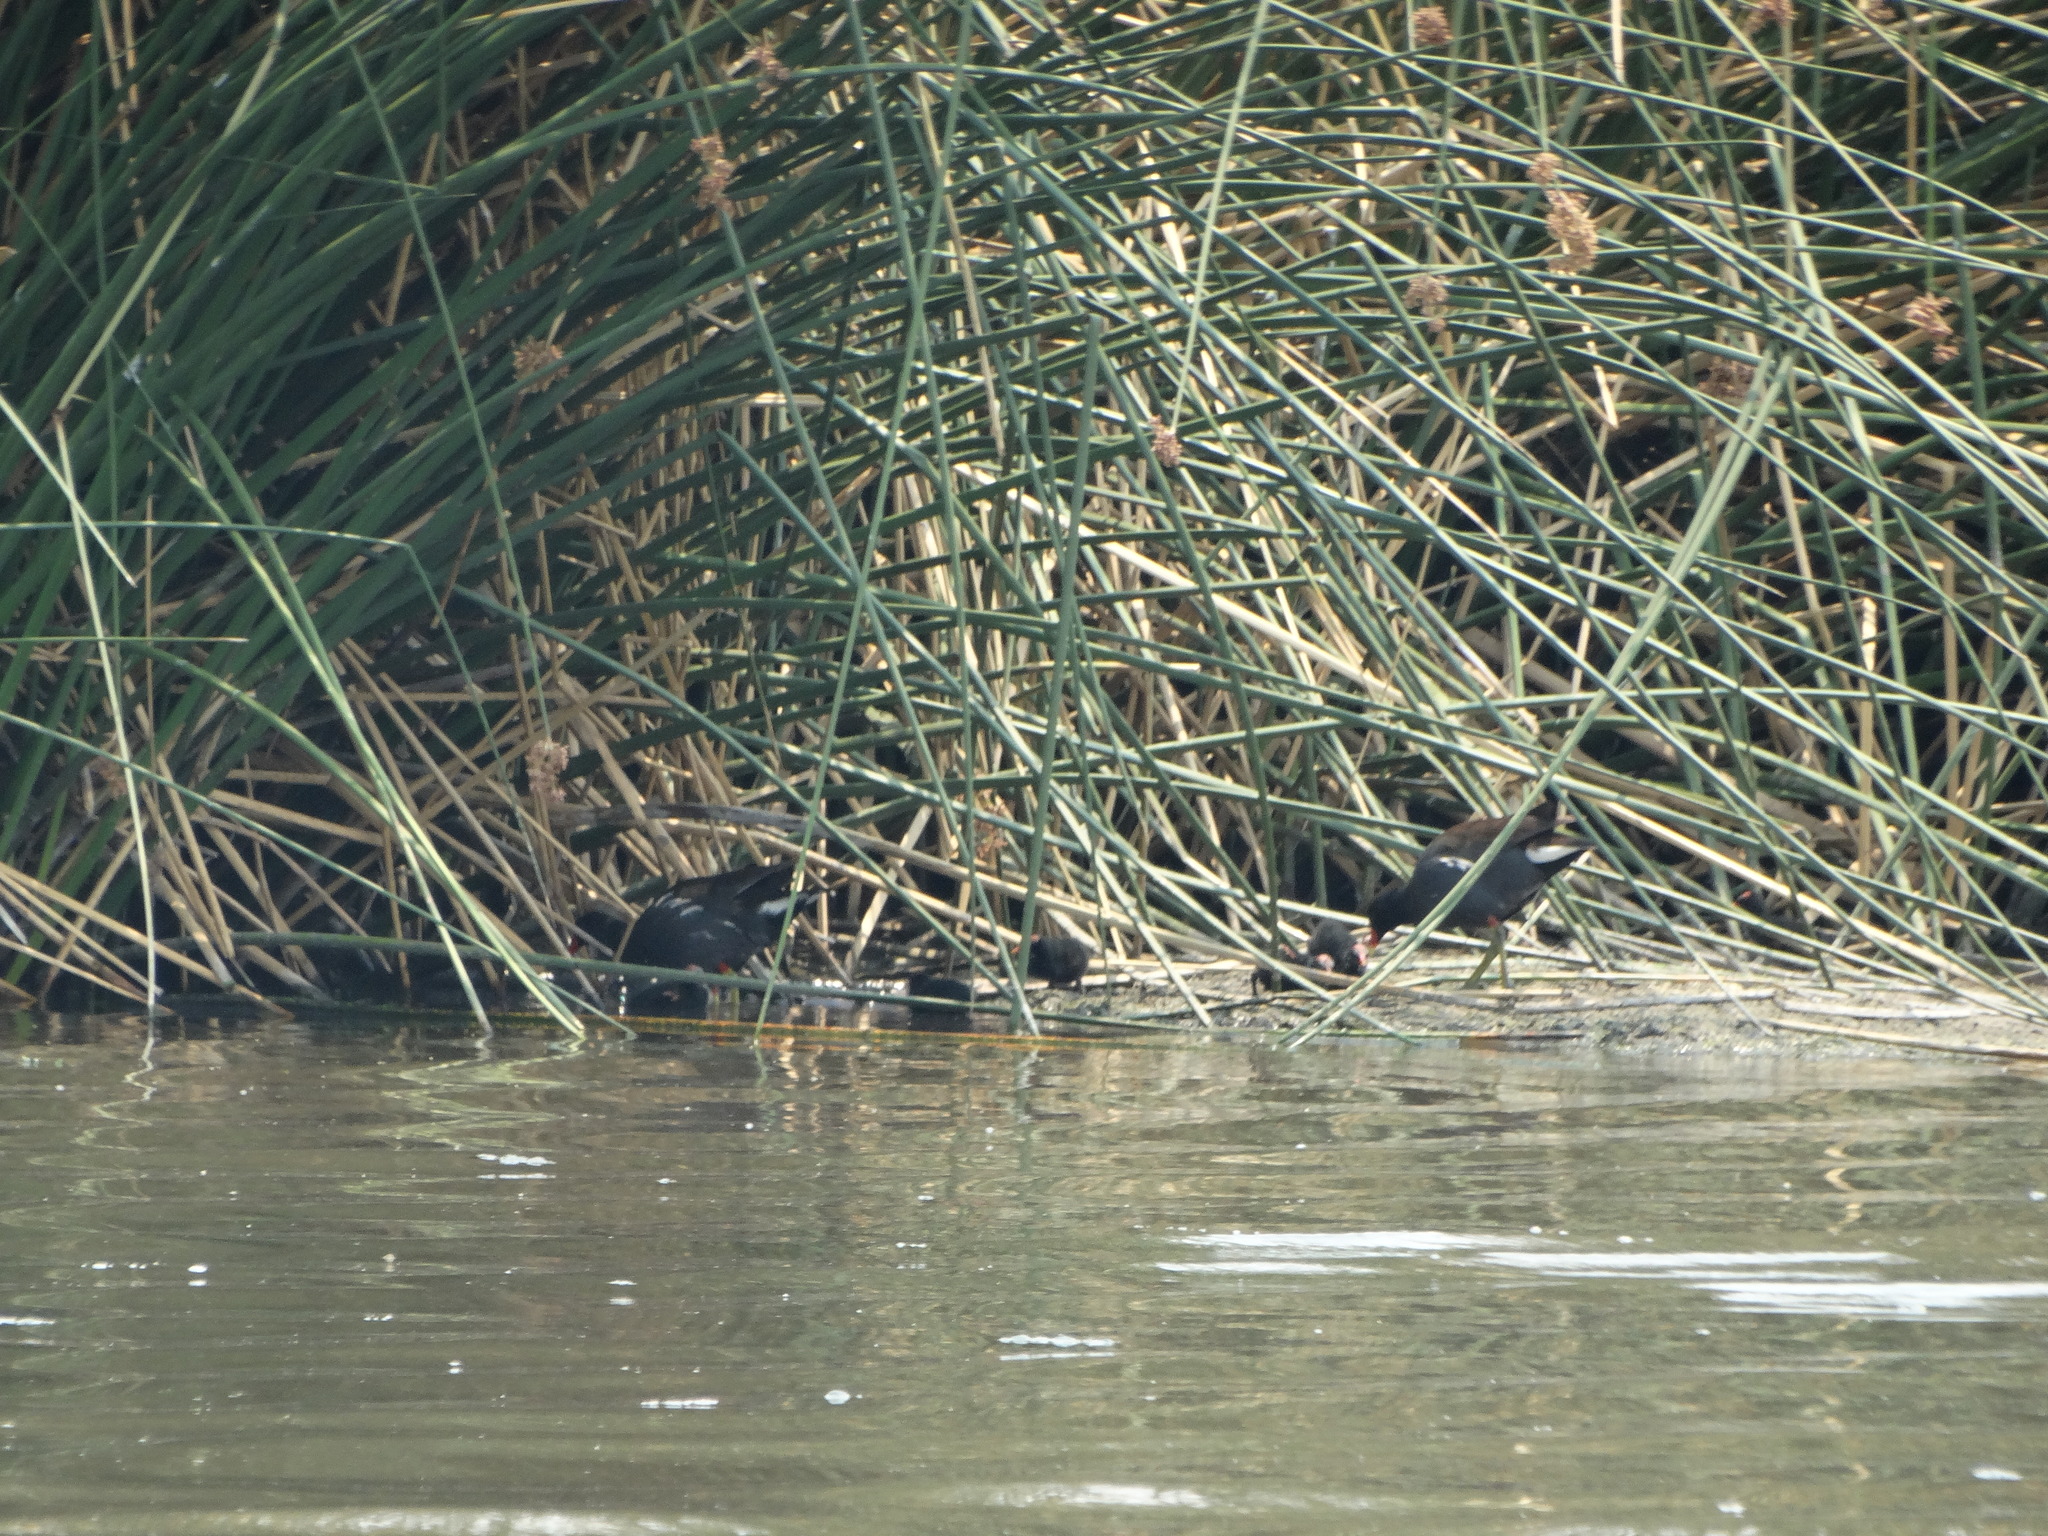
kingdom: Animalia
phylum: Chordata
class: Aves
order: Gruiformes
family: Rallidae
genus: Gallinula
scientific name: Gallinula chloropus
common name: Common moorhen
